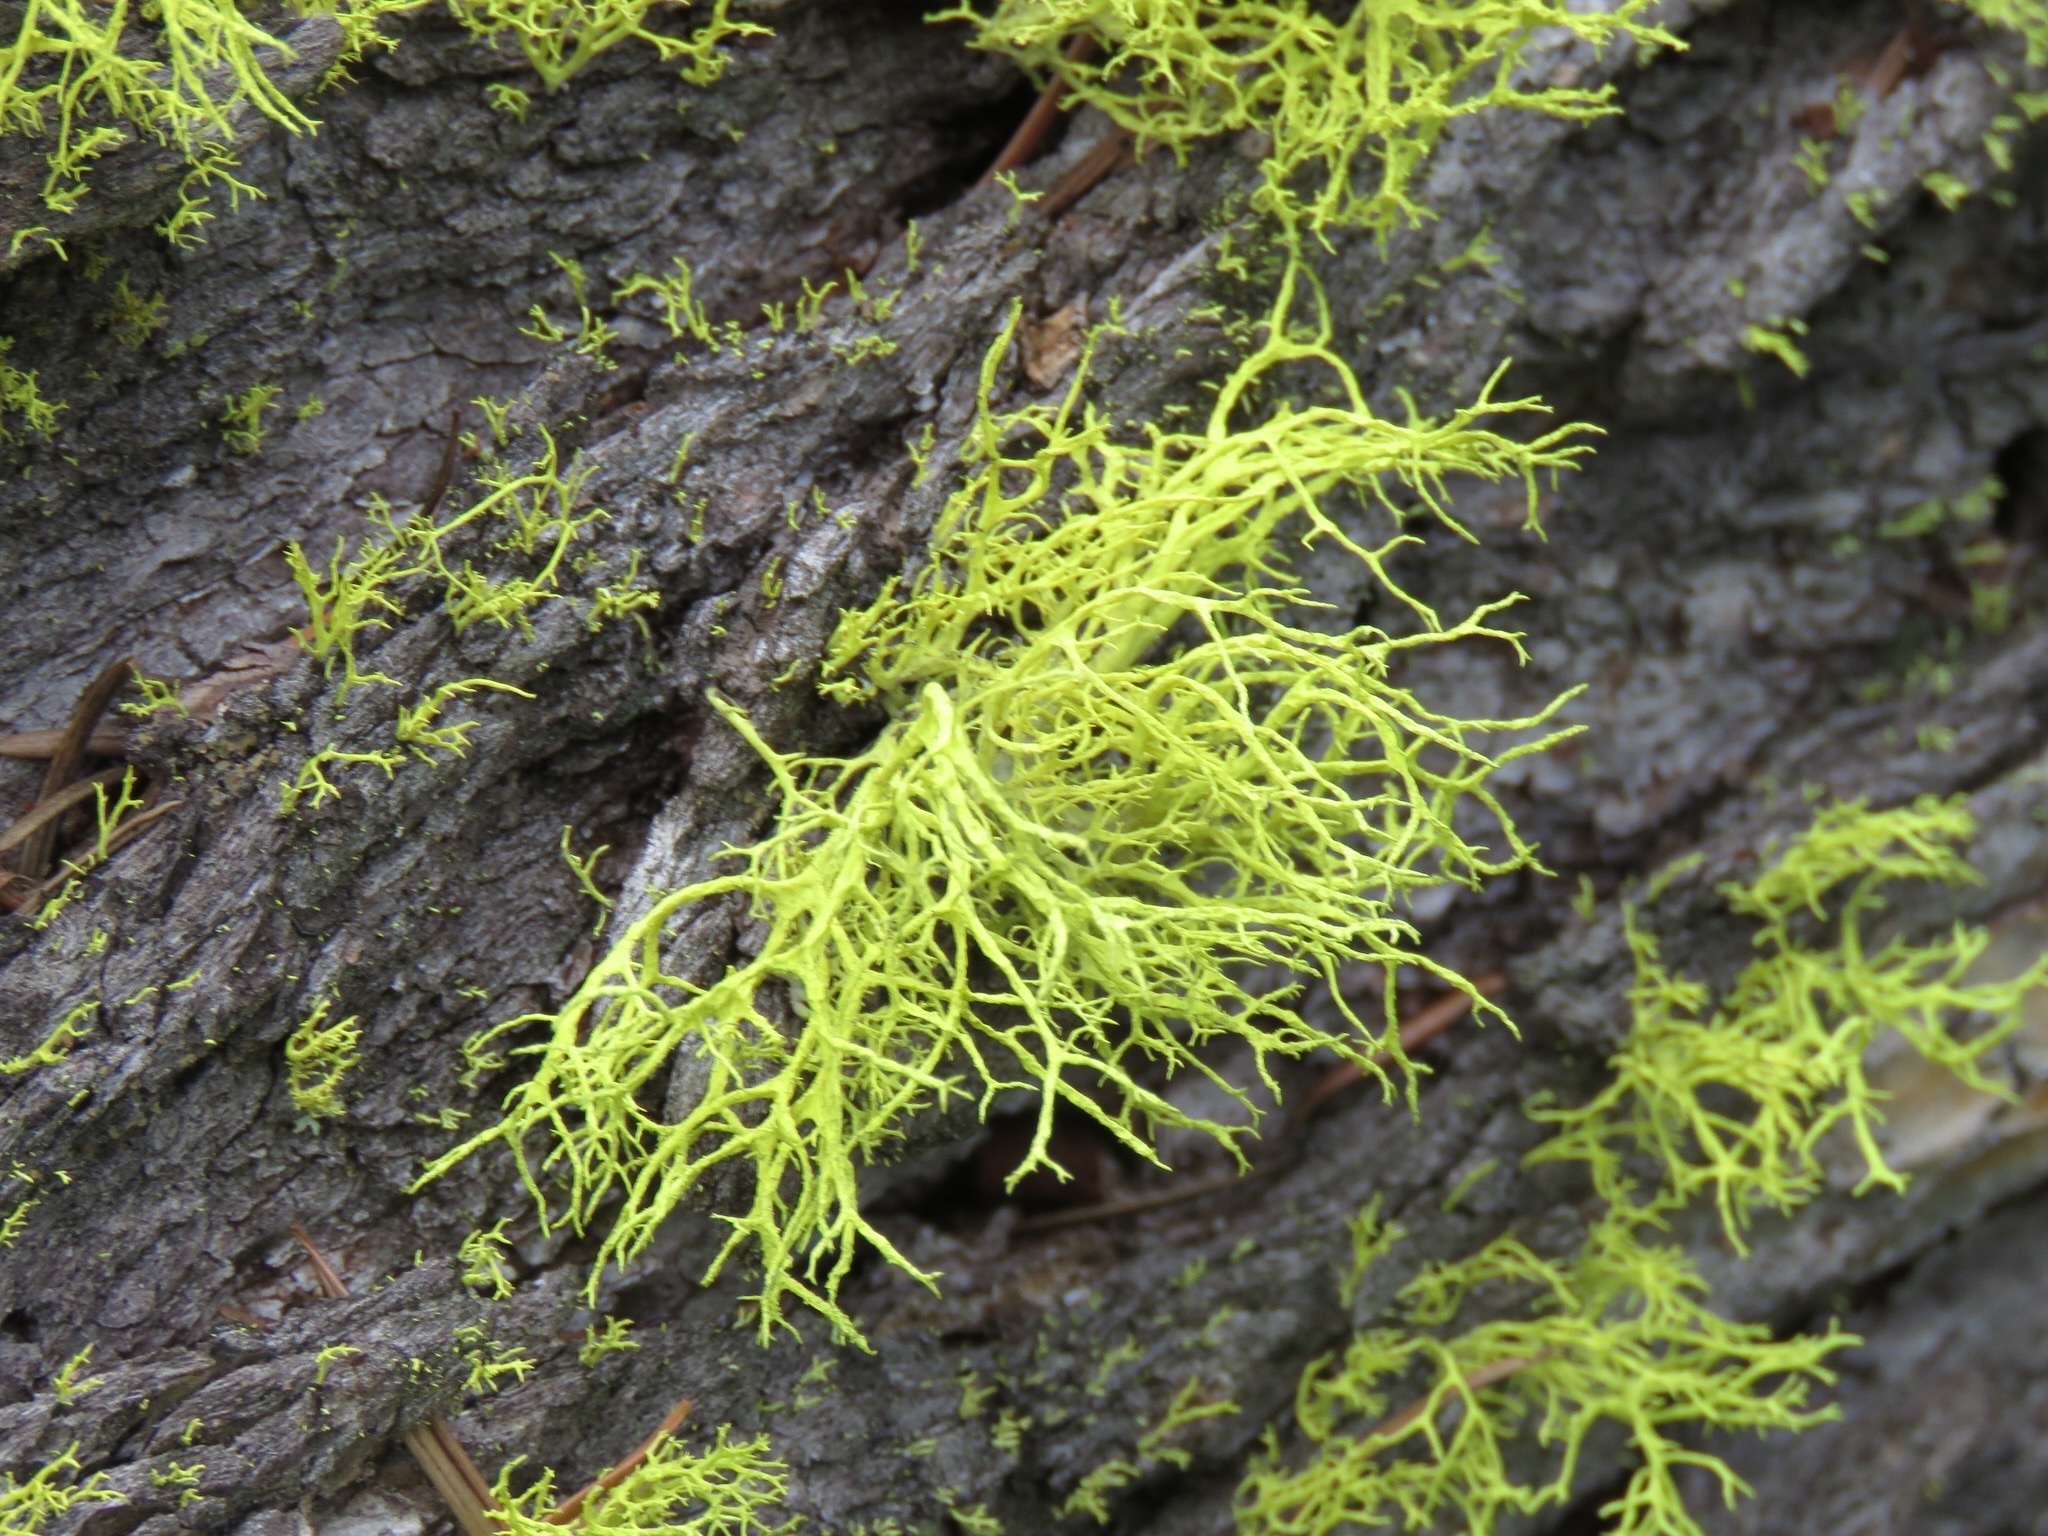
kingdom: Fungi
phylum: Ascomycota
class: Lecanoromycetes
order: Lecanorales
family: Parmeliaceae
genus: Letharia
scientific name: Letharia vulpina
